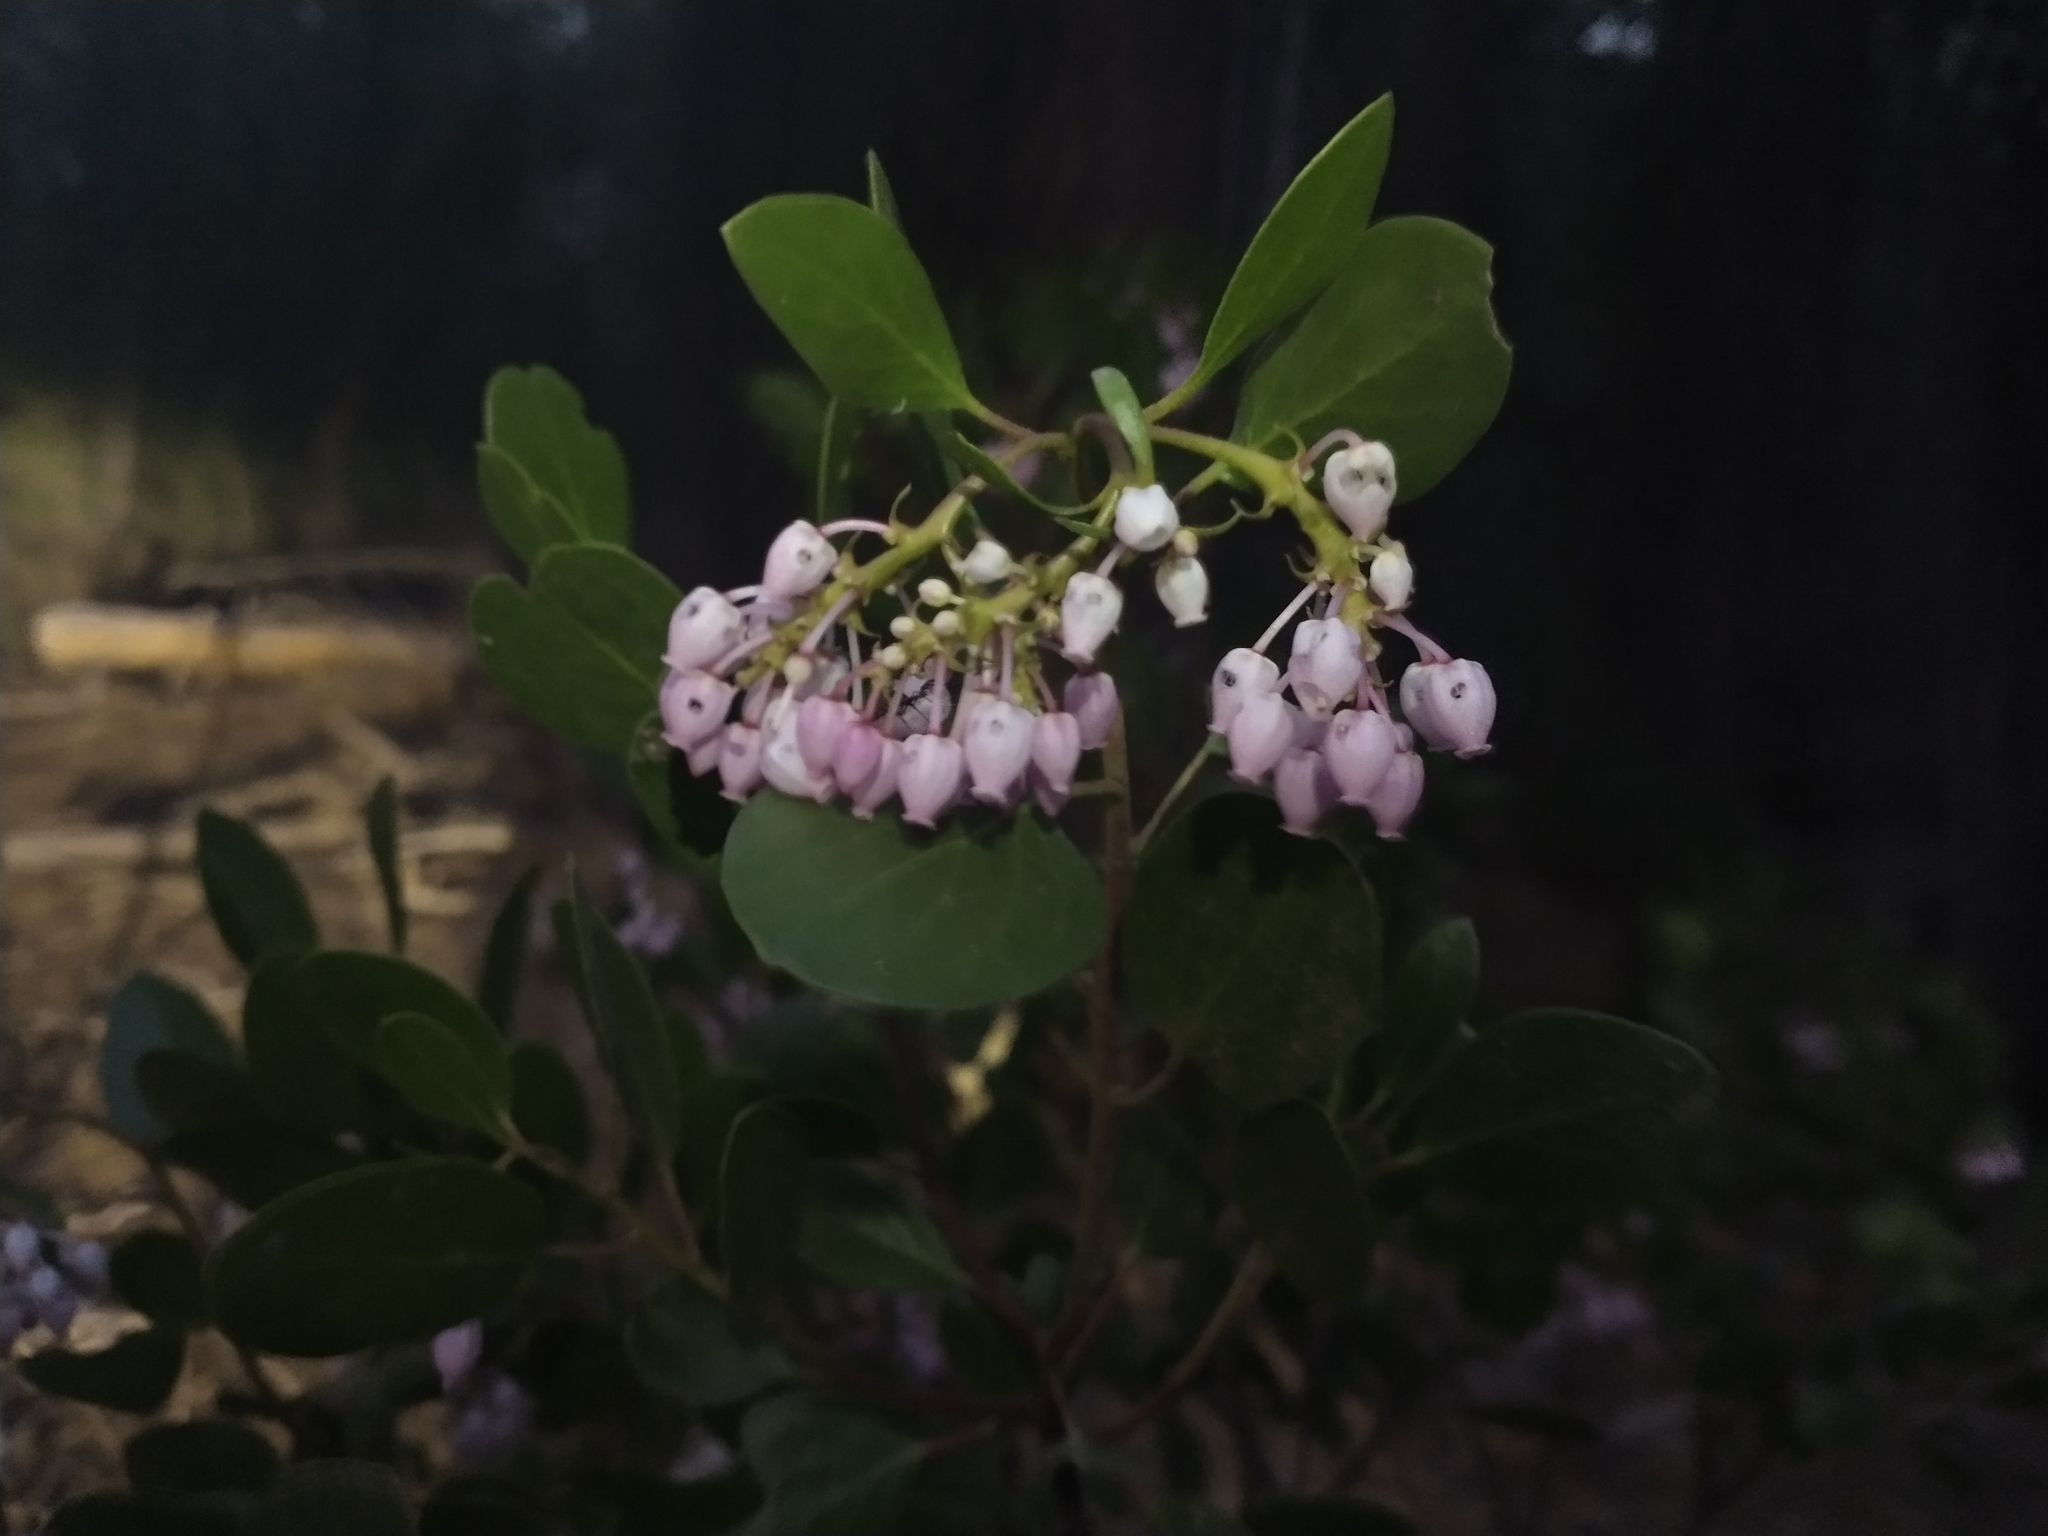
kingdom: Plantae
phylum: Tracheophyta
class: Magnoliopsida
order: Ericales
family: Ericaceae
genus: Arctostaphylos
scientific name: Arctostaphylos patula
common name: Green-leaf manzanita
